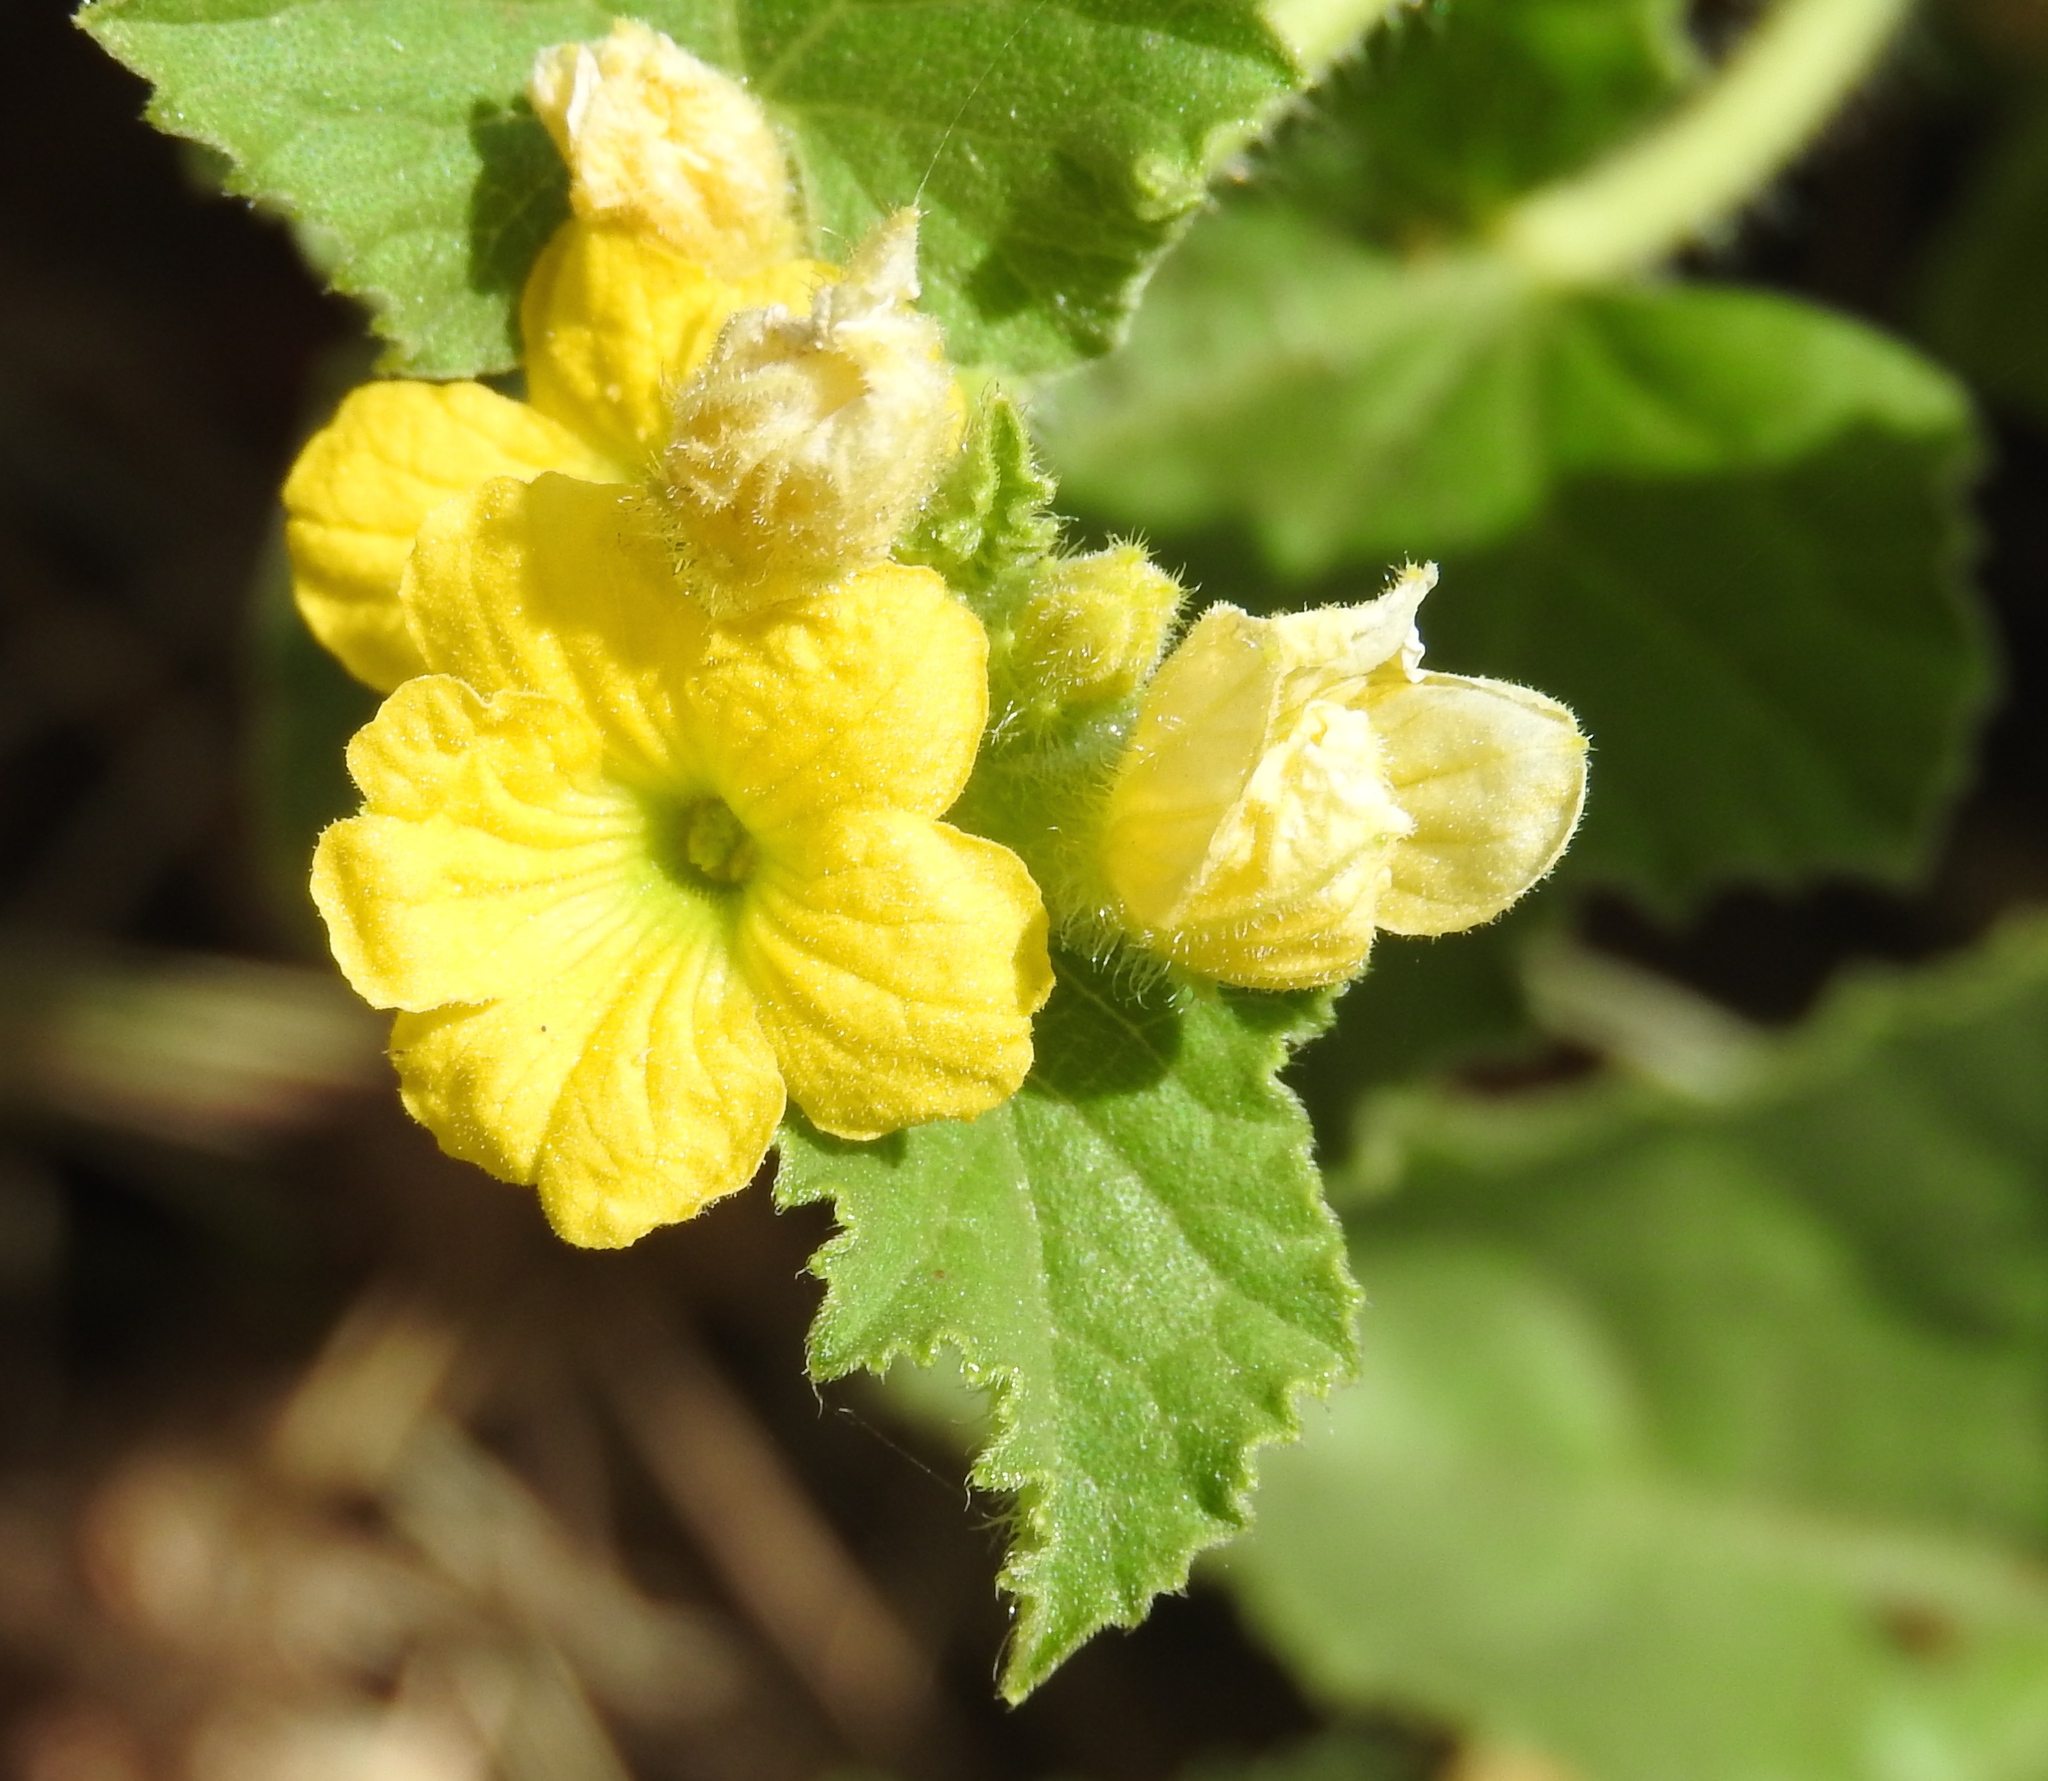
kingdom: Plantae
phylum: Tracheophyta
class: Magnoliopsida
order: Cucurbitales
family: Cucurbitaceae
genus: Cucumis
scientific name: Cucumis melo
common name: Melon
